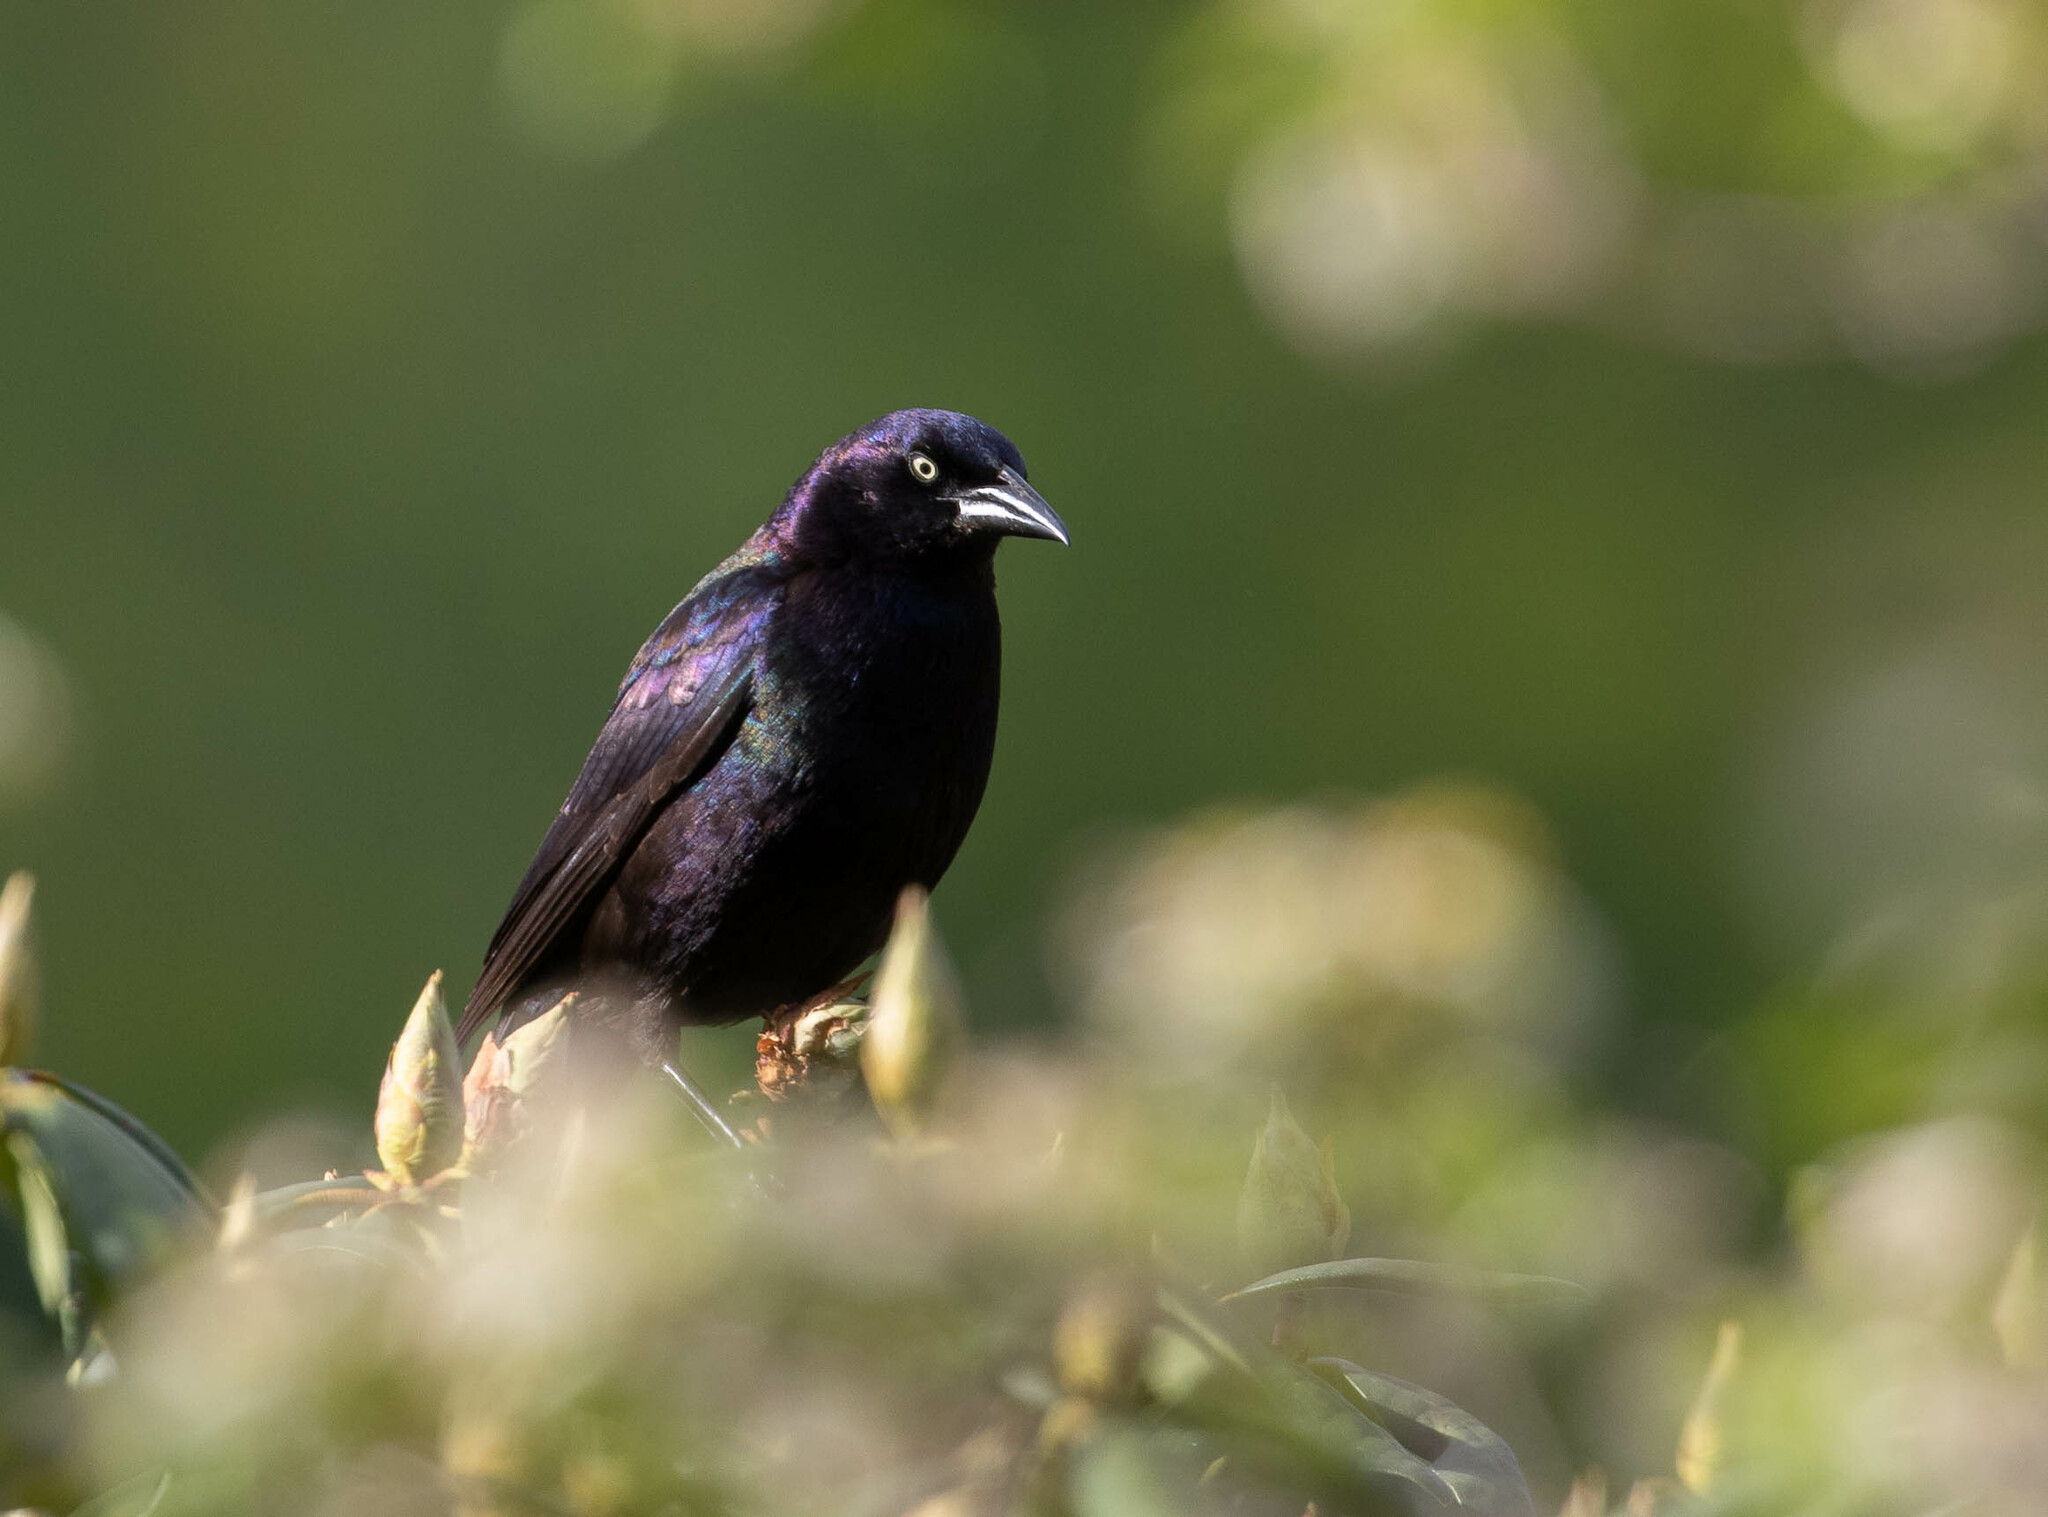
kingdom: Animalia
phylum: Chordata
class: Aves
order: Passeriformes
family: Icteridae
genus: Quiscalus
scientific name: Quiscalus quiscula
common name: Common grackle
